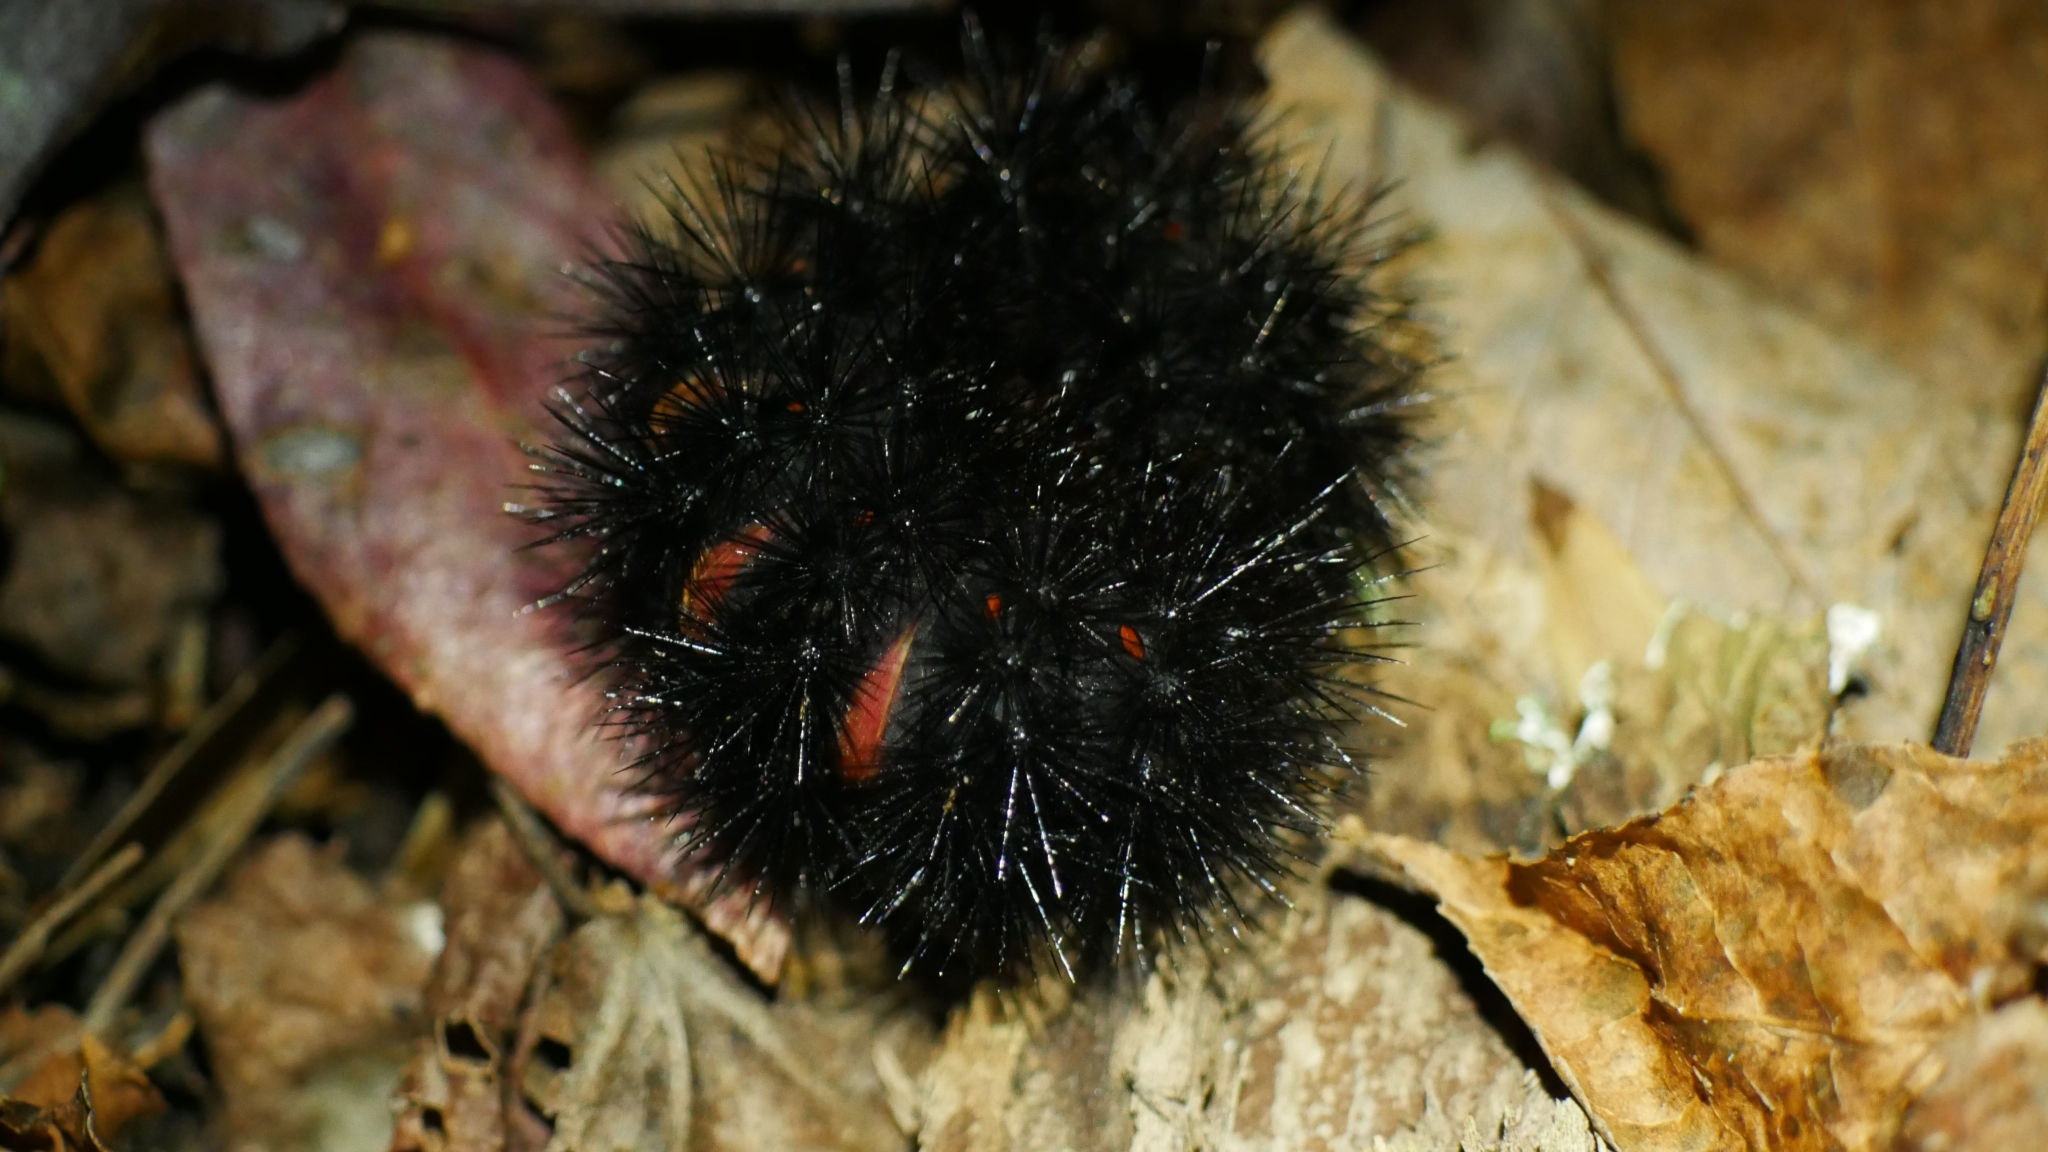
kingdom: Animalia
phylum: Arthropoda
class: Insecta
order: Lepidoptera
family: Erebidae
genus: Hypercompe
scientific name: Hypercompe scribonia
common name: Giant leopard moth
